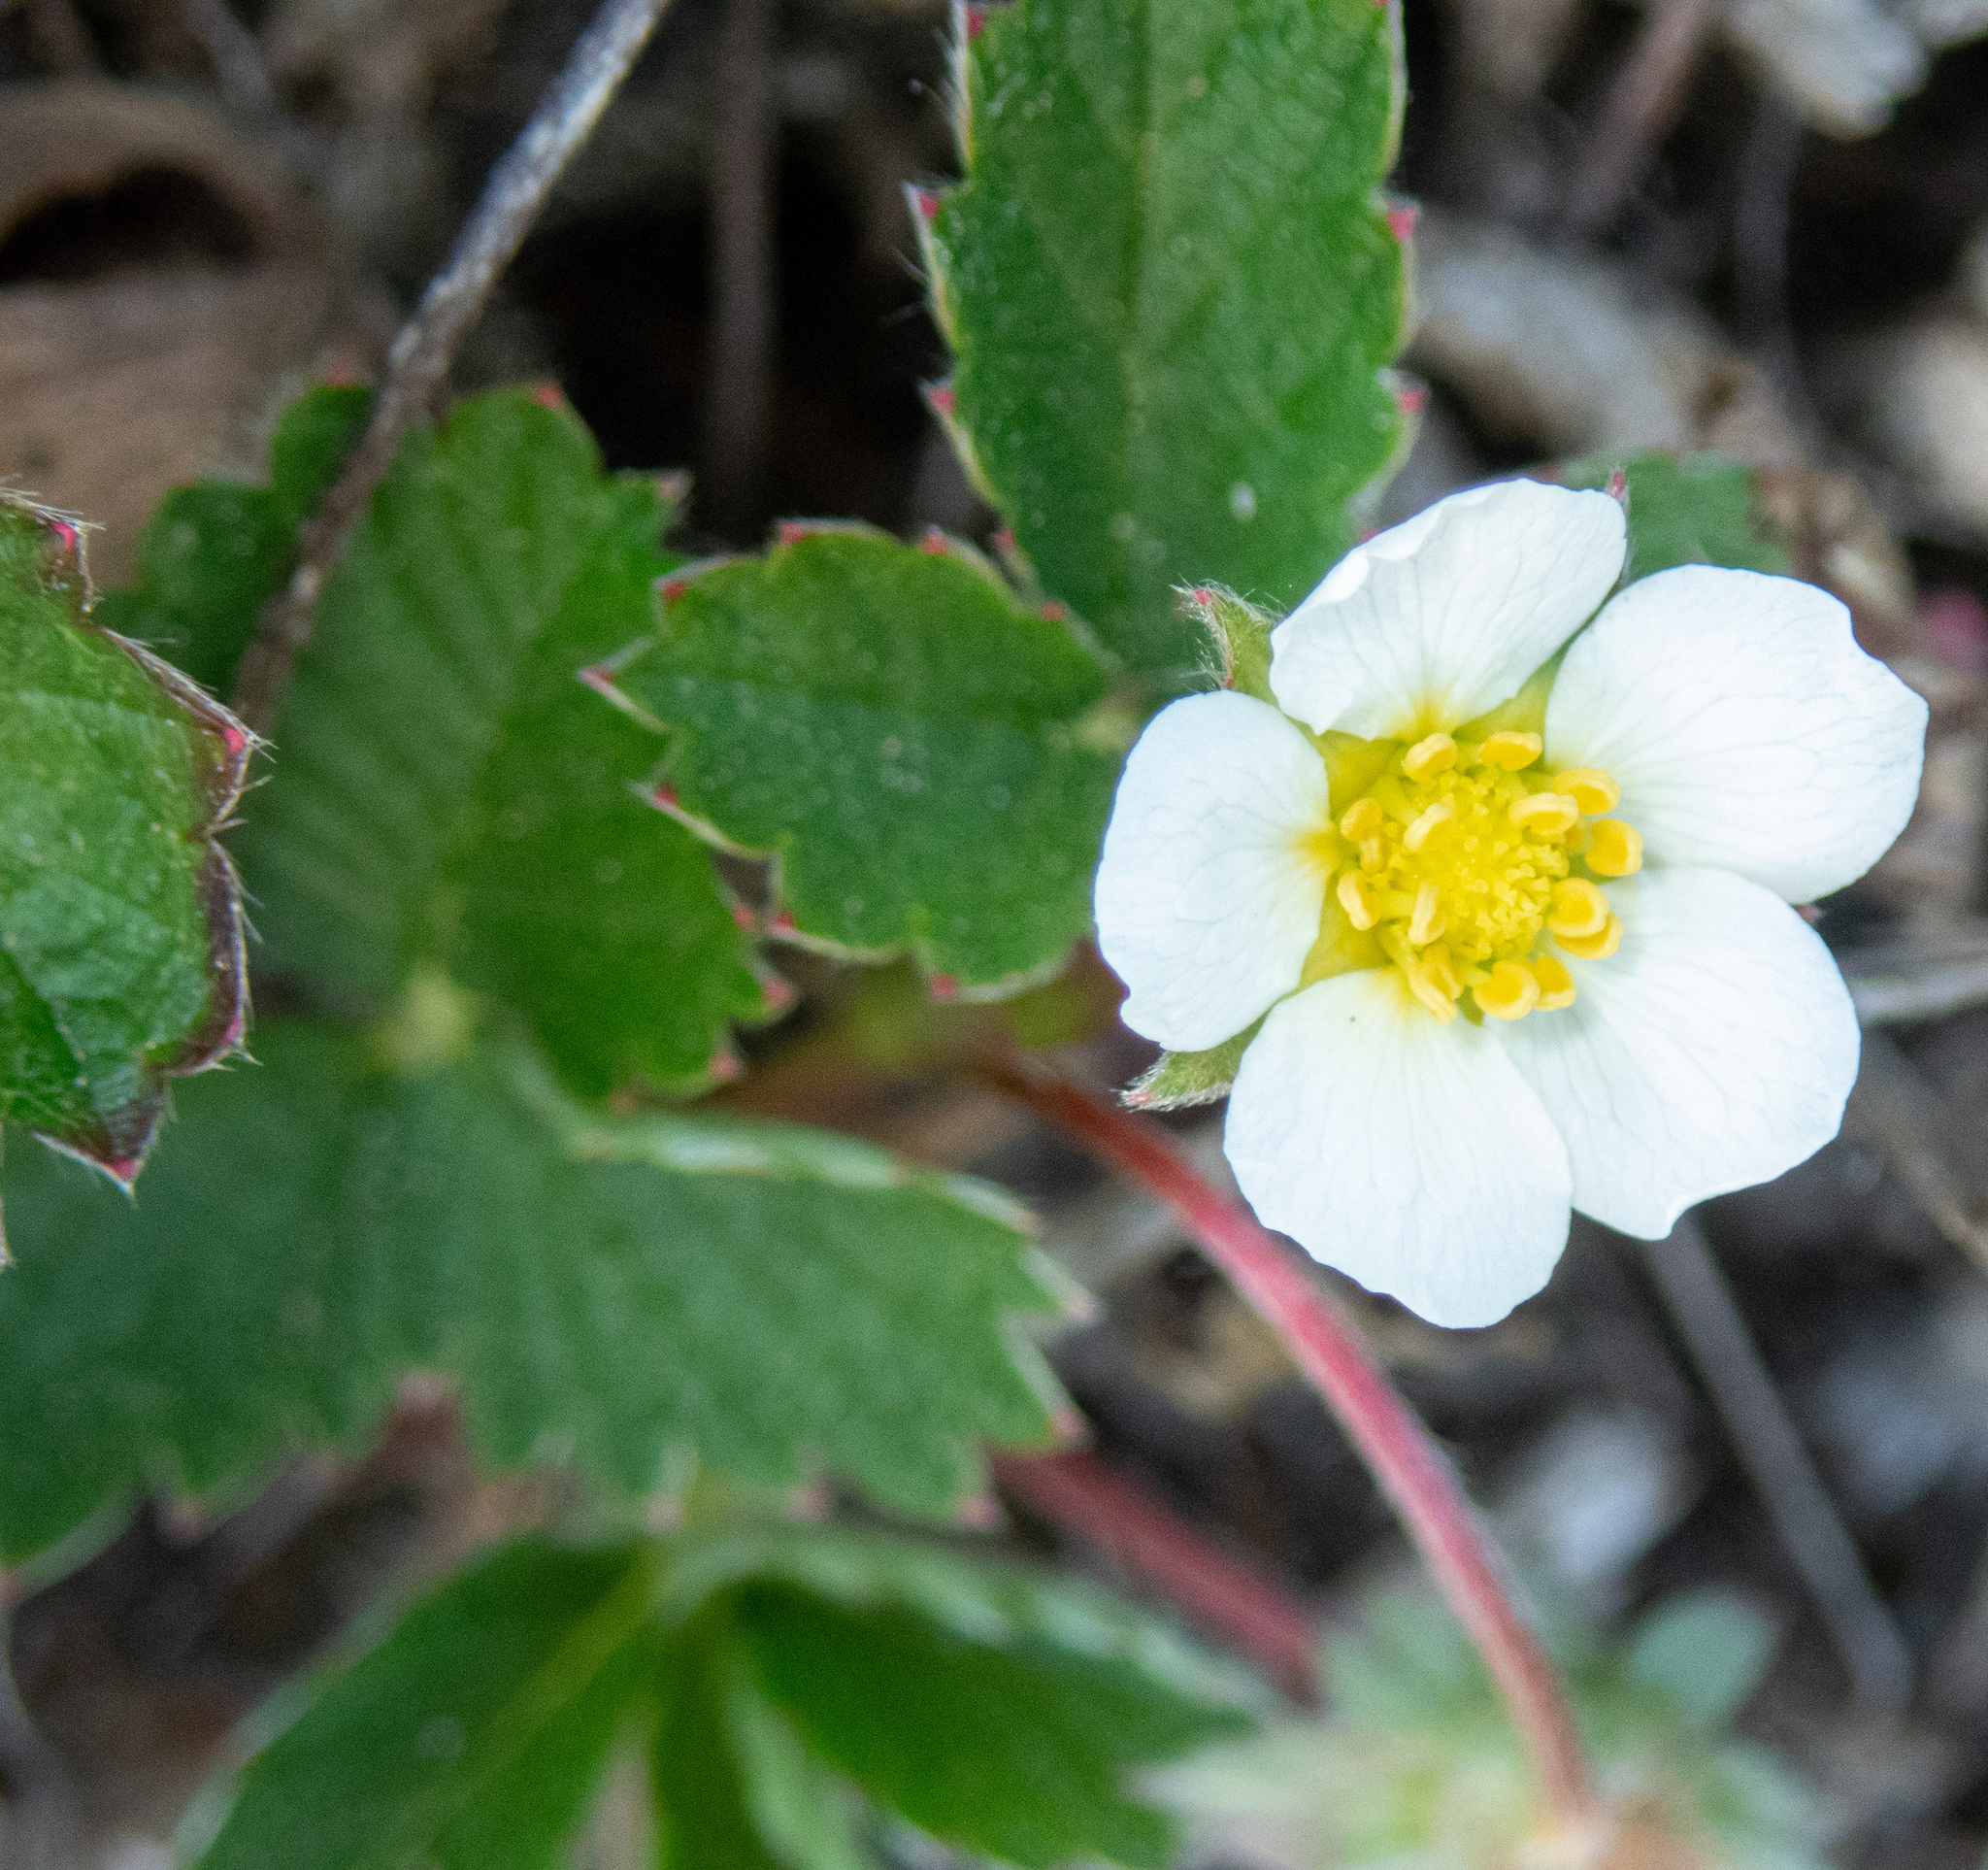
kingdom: Plantae
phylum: Tracheophyta
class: Magnoliopsida
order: Rosales
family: Rosaceae
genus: Fragaria
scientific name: Fragaria chiloensis
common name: Beach strawberry
